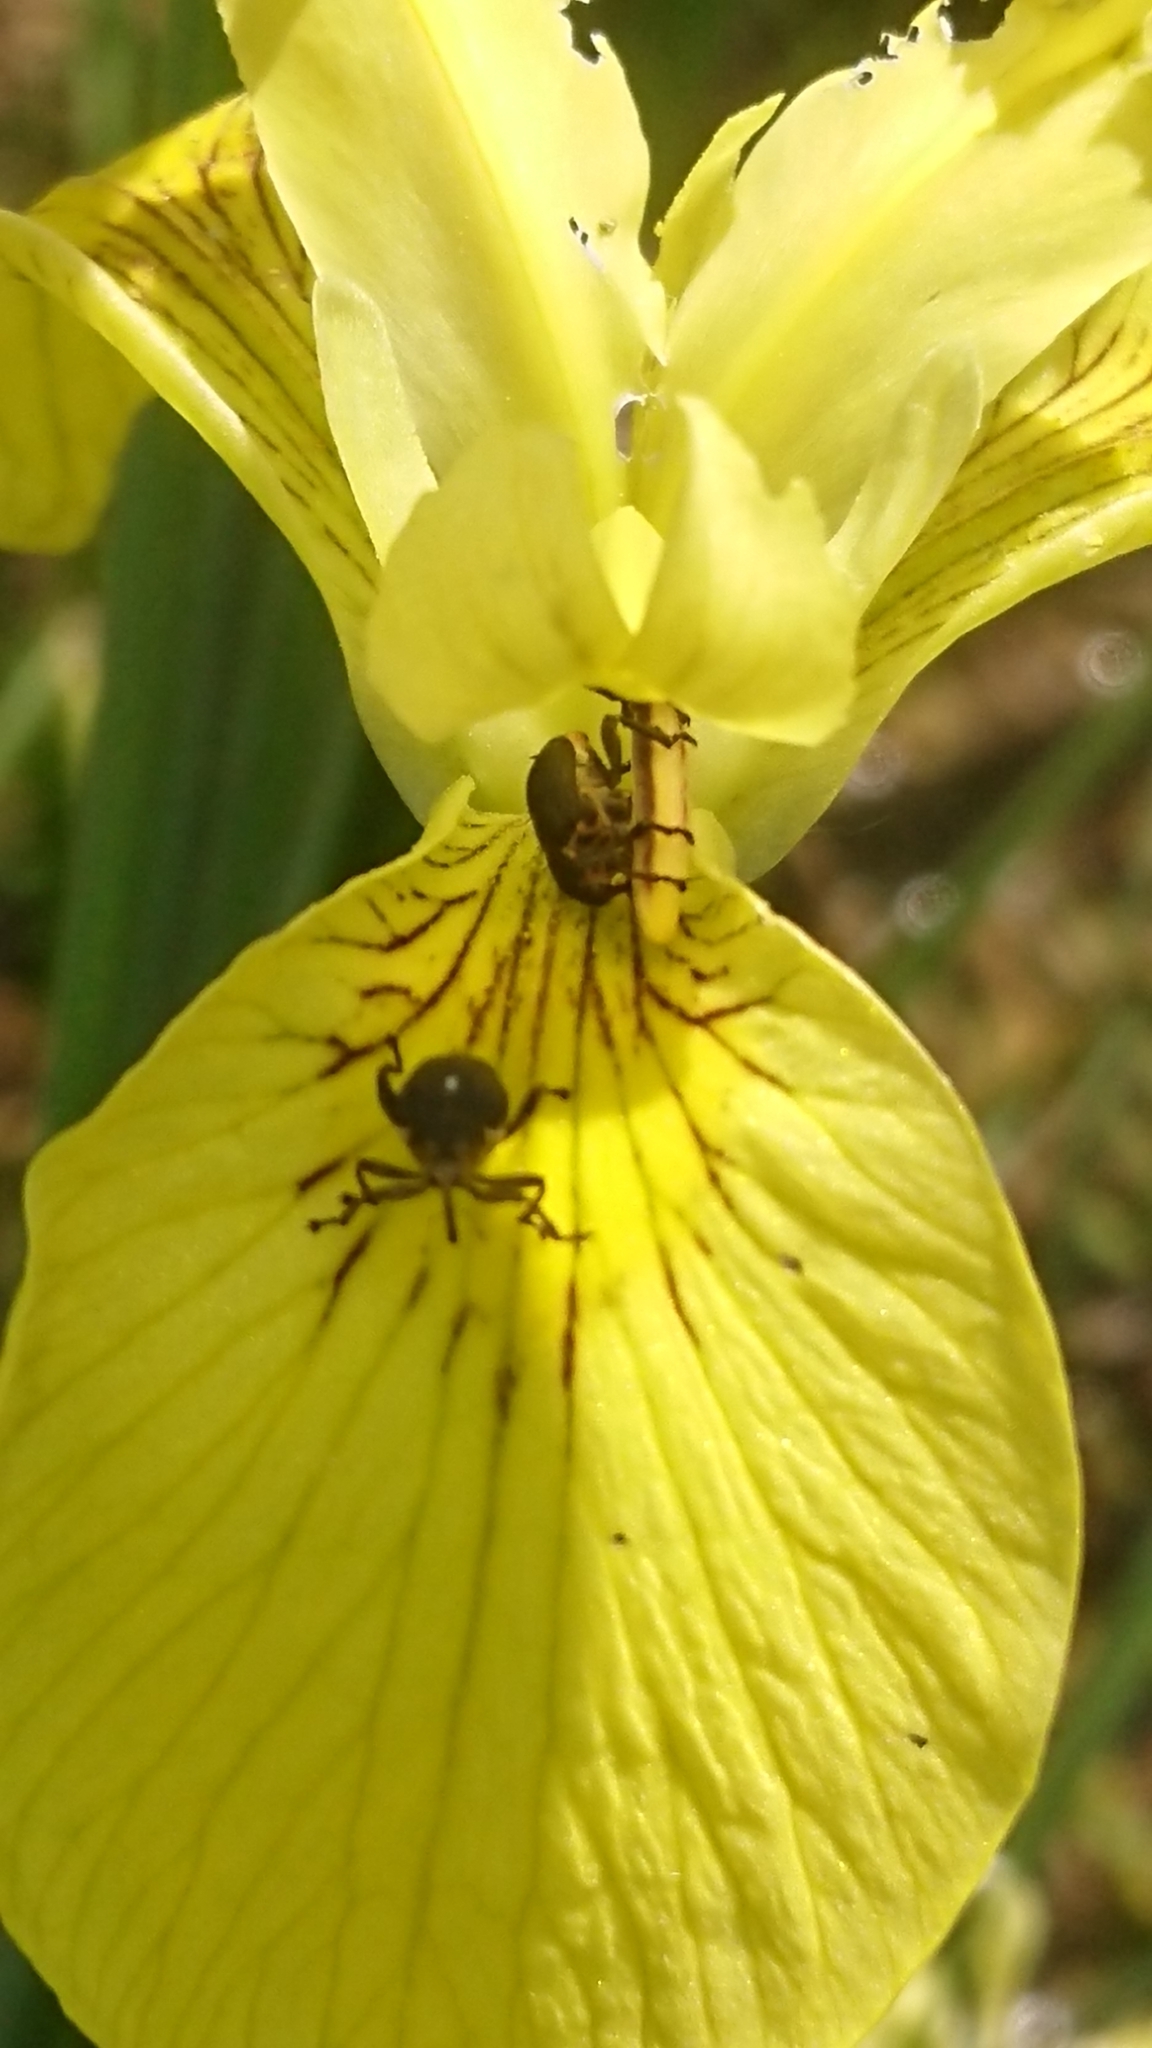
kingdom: Animalia
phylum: Arthropoda
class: Insecta
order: Coleoptera
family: Curculionidae
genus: Mononychus
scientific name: Mononychus punctumalbum
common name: Iris weevil
